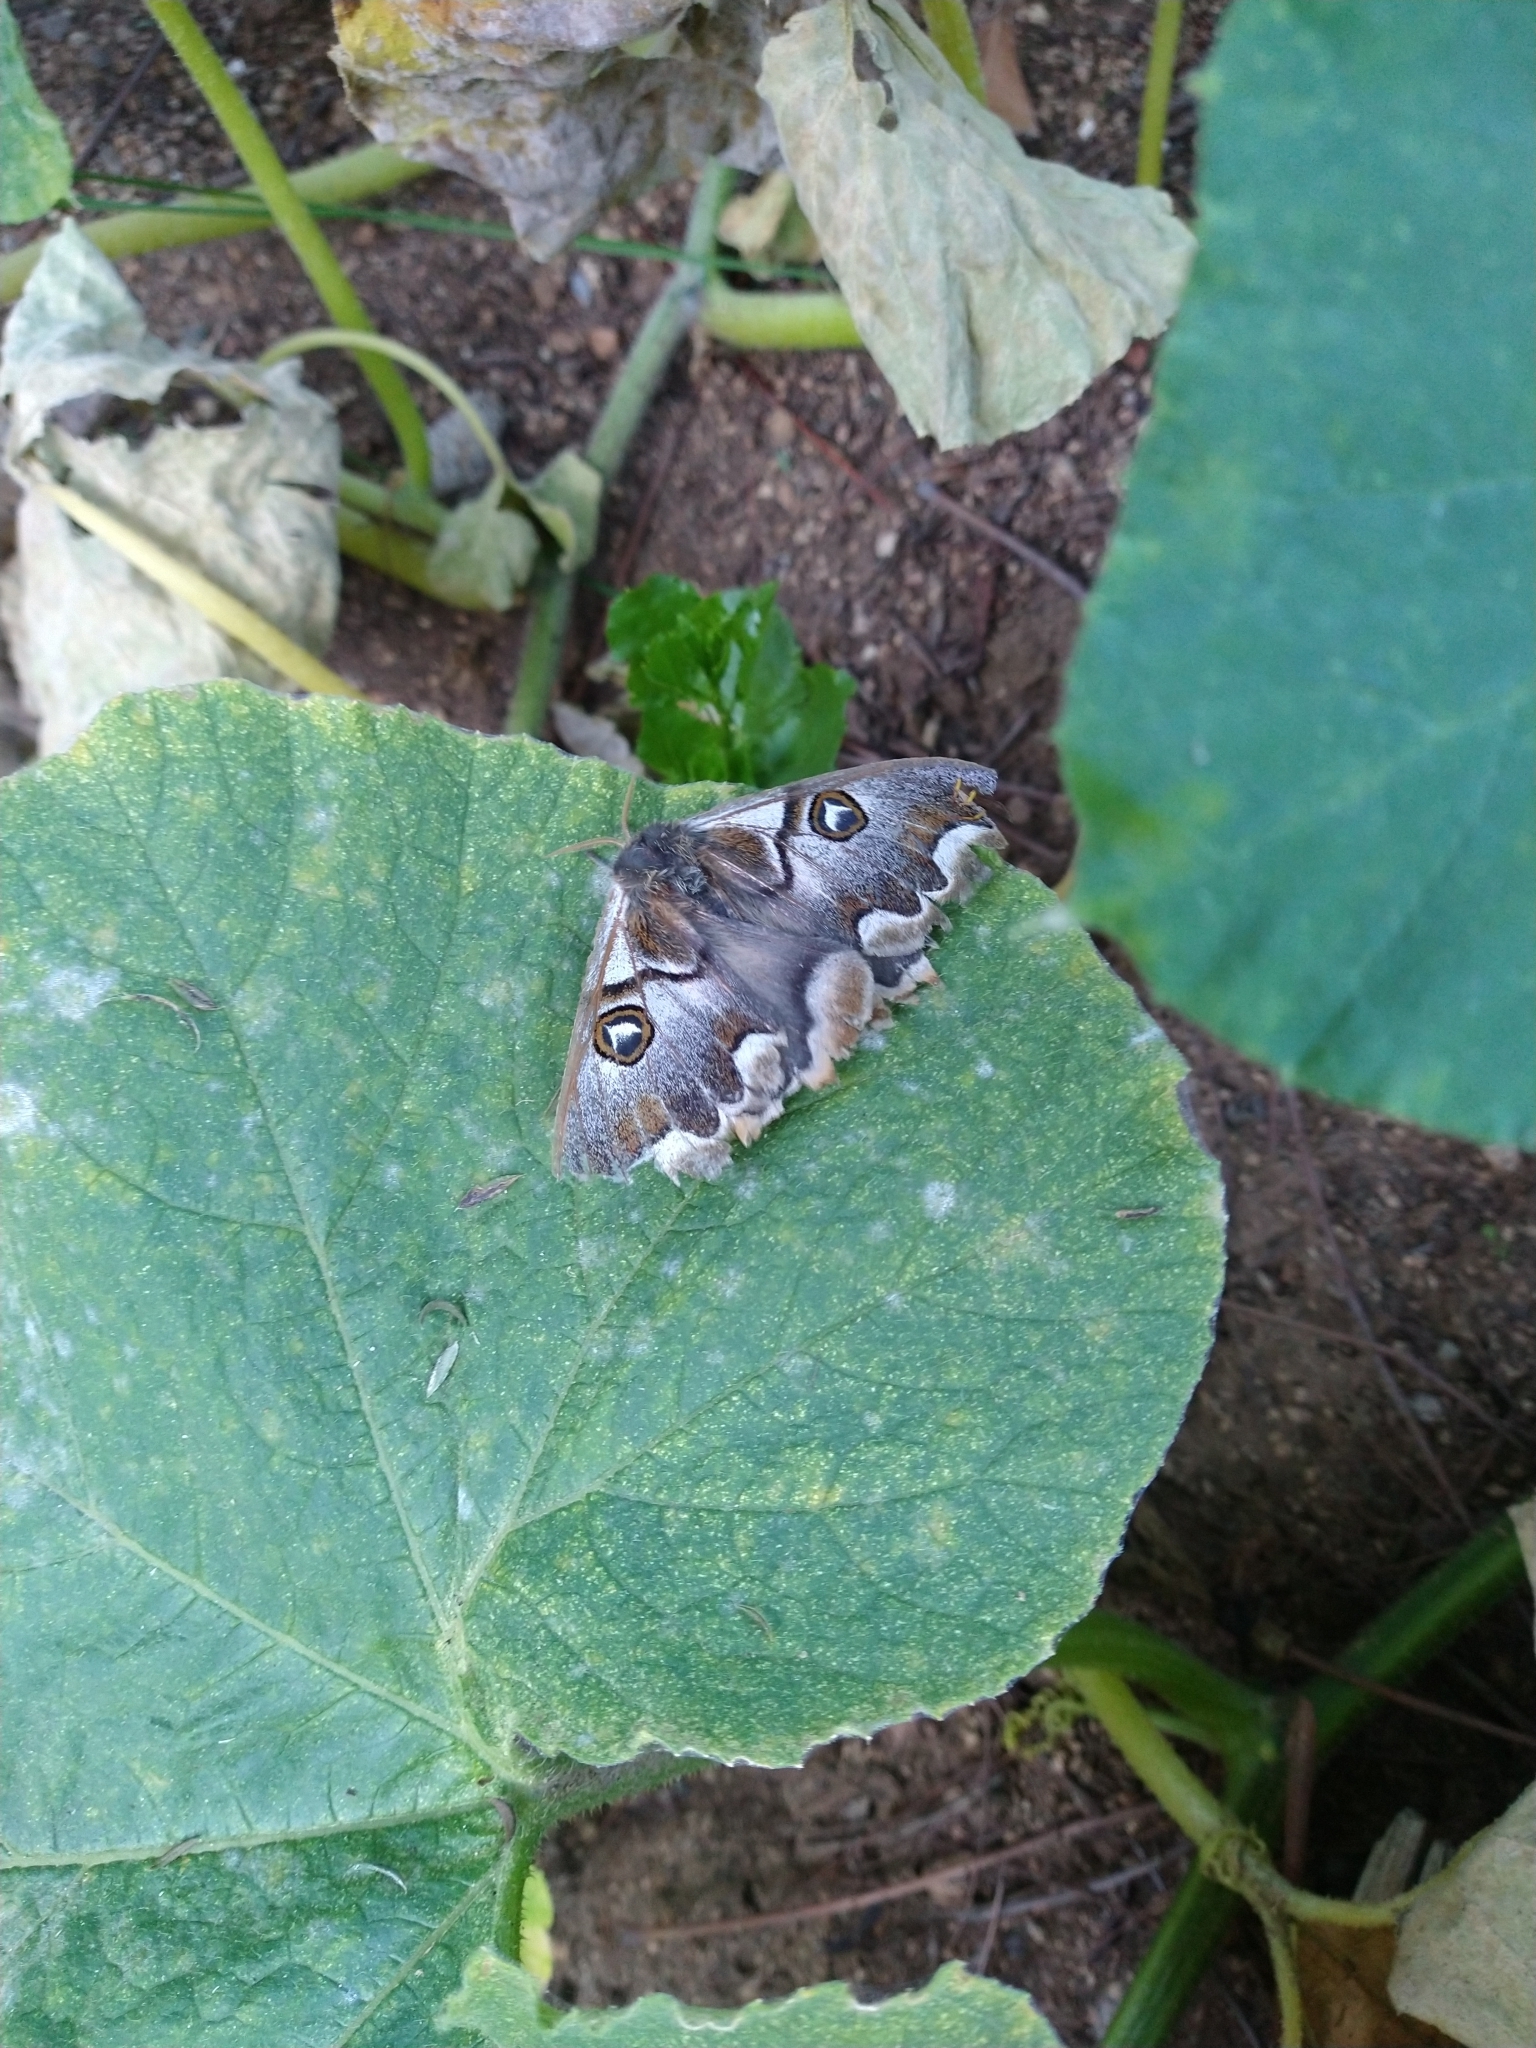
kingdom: Animalia
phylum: Arthropoda
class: Insecta
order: Lepidoptera
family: Saturniidae
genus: Polythysana
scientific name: Polythysana cinerascens
